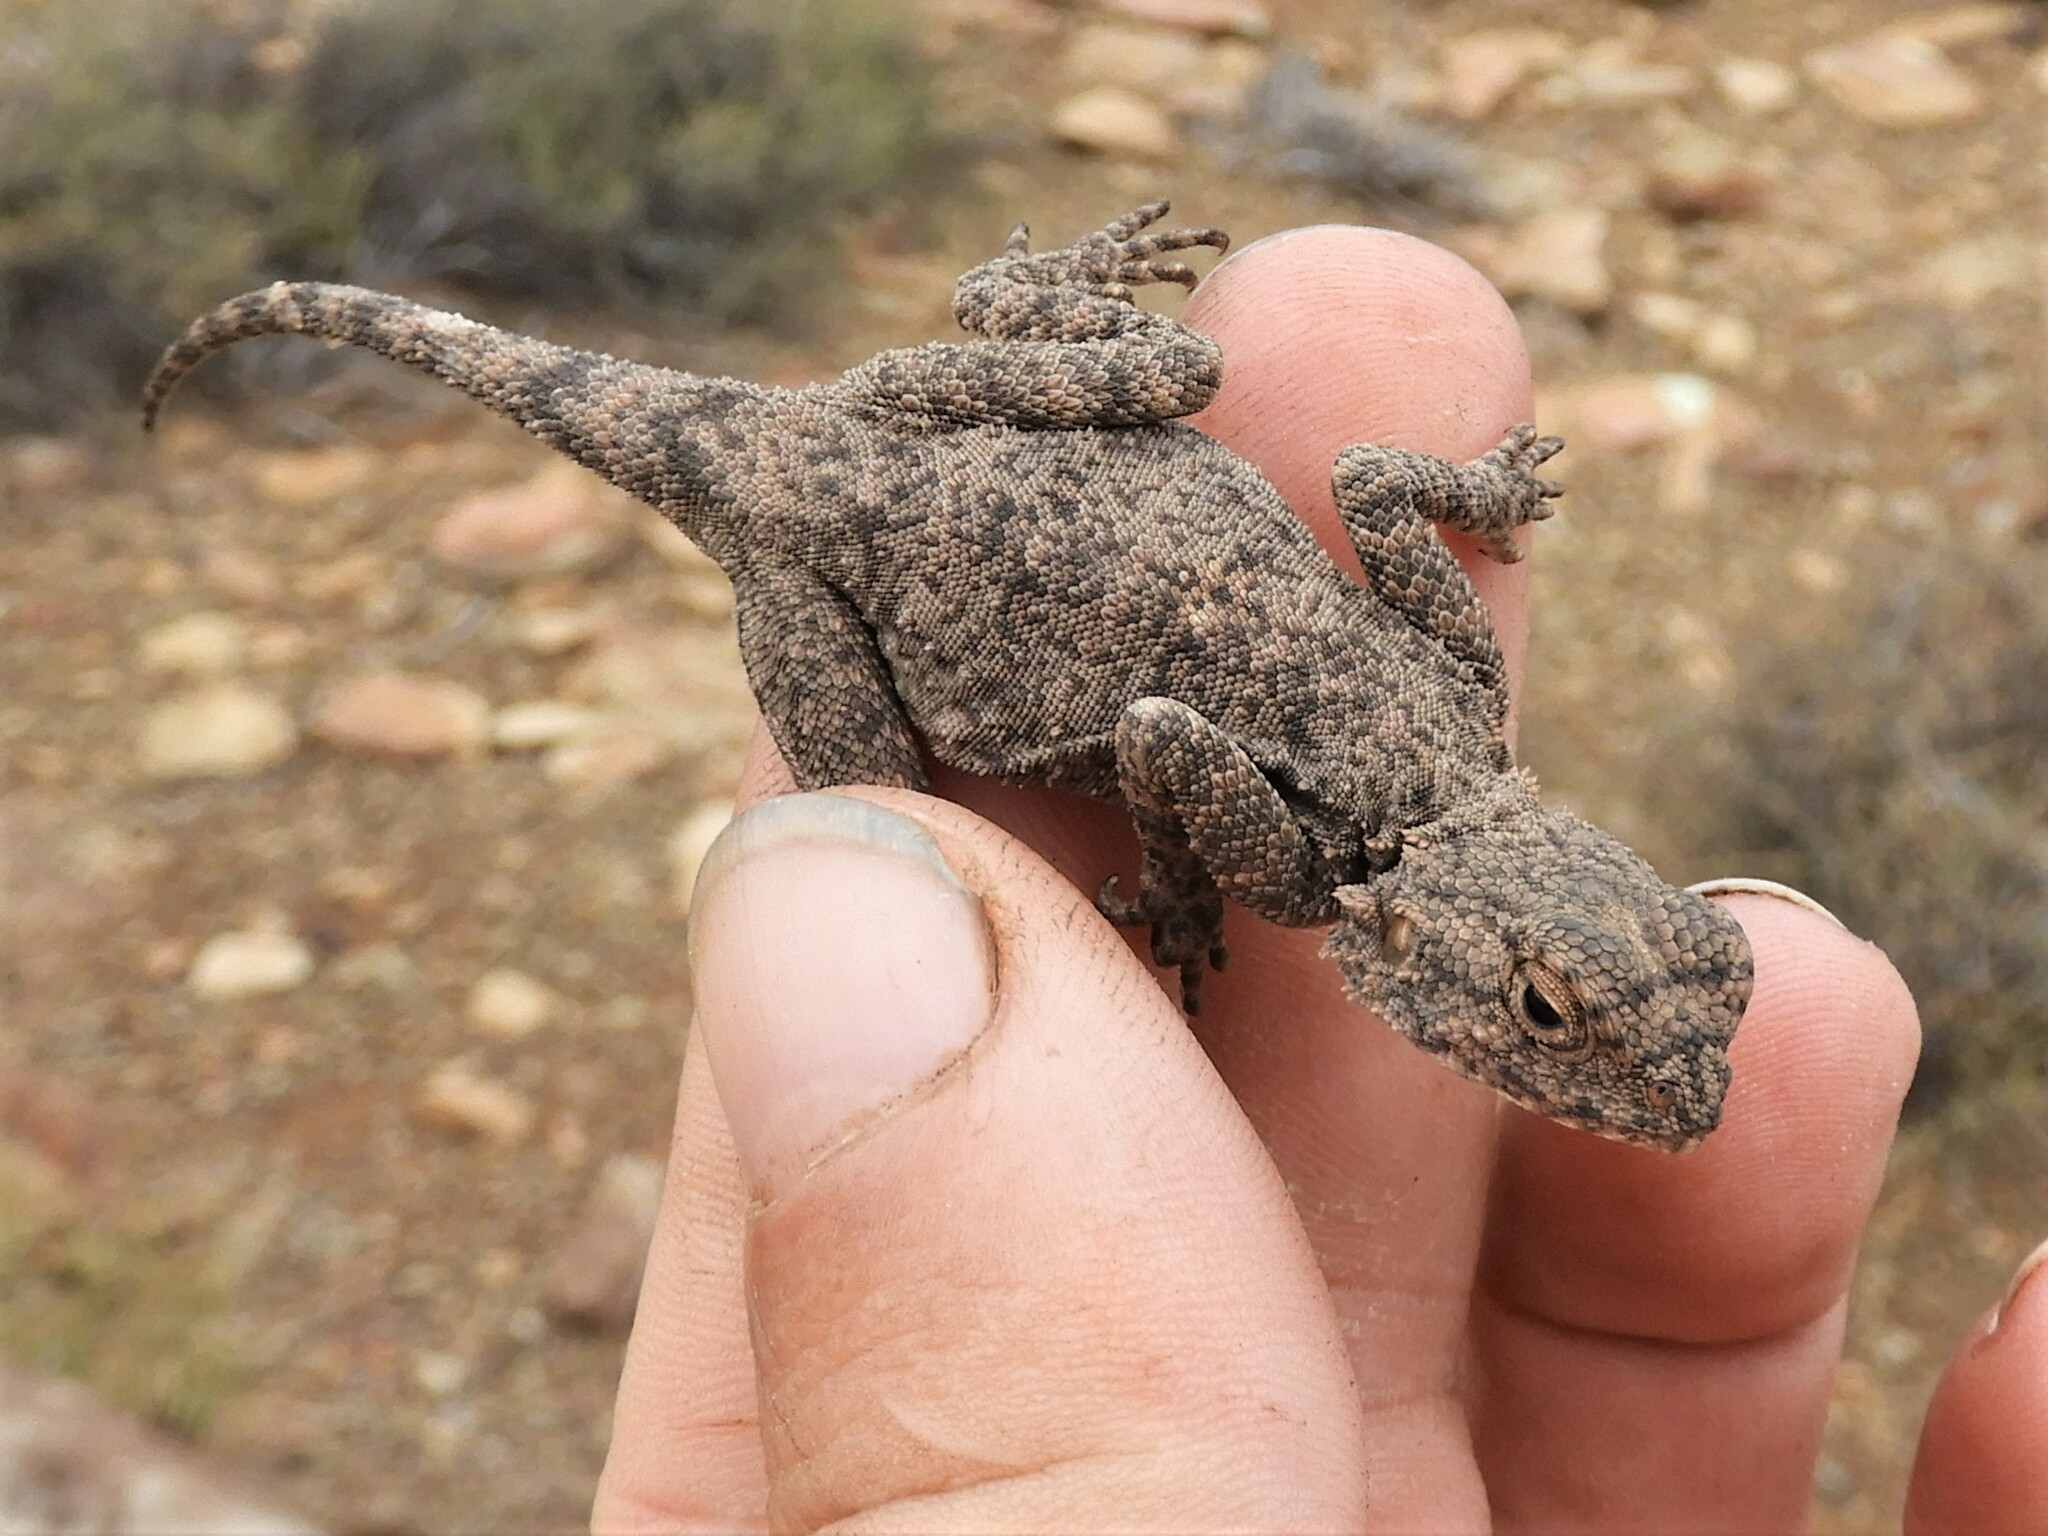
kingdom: Animalia
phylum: Chordata
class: Squamata
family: Agamidae
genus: Agama
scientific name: Agama atra
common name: Southern african rock agama
